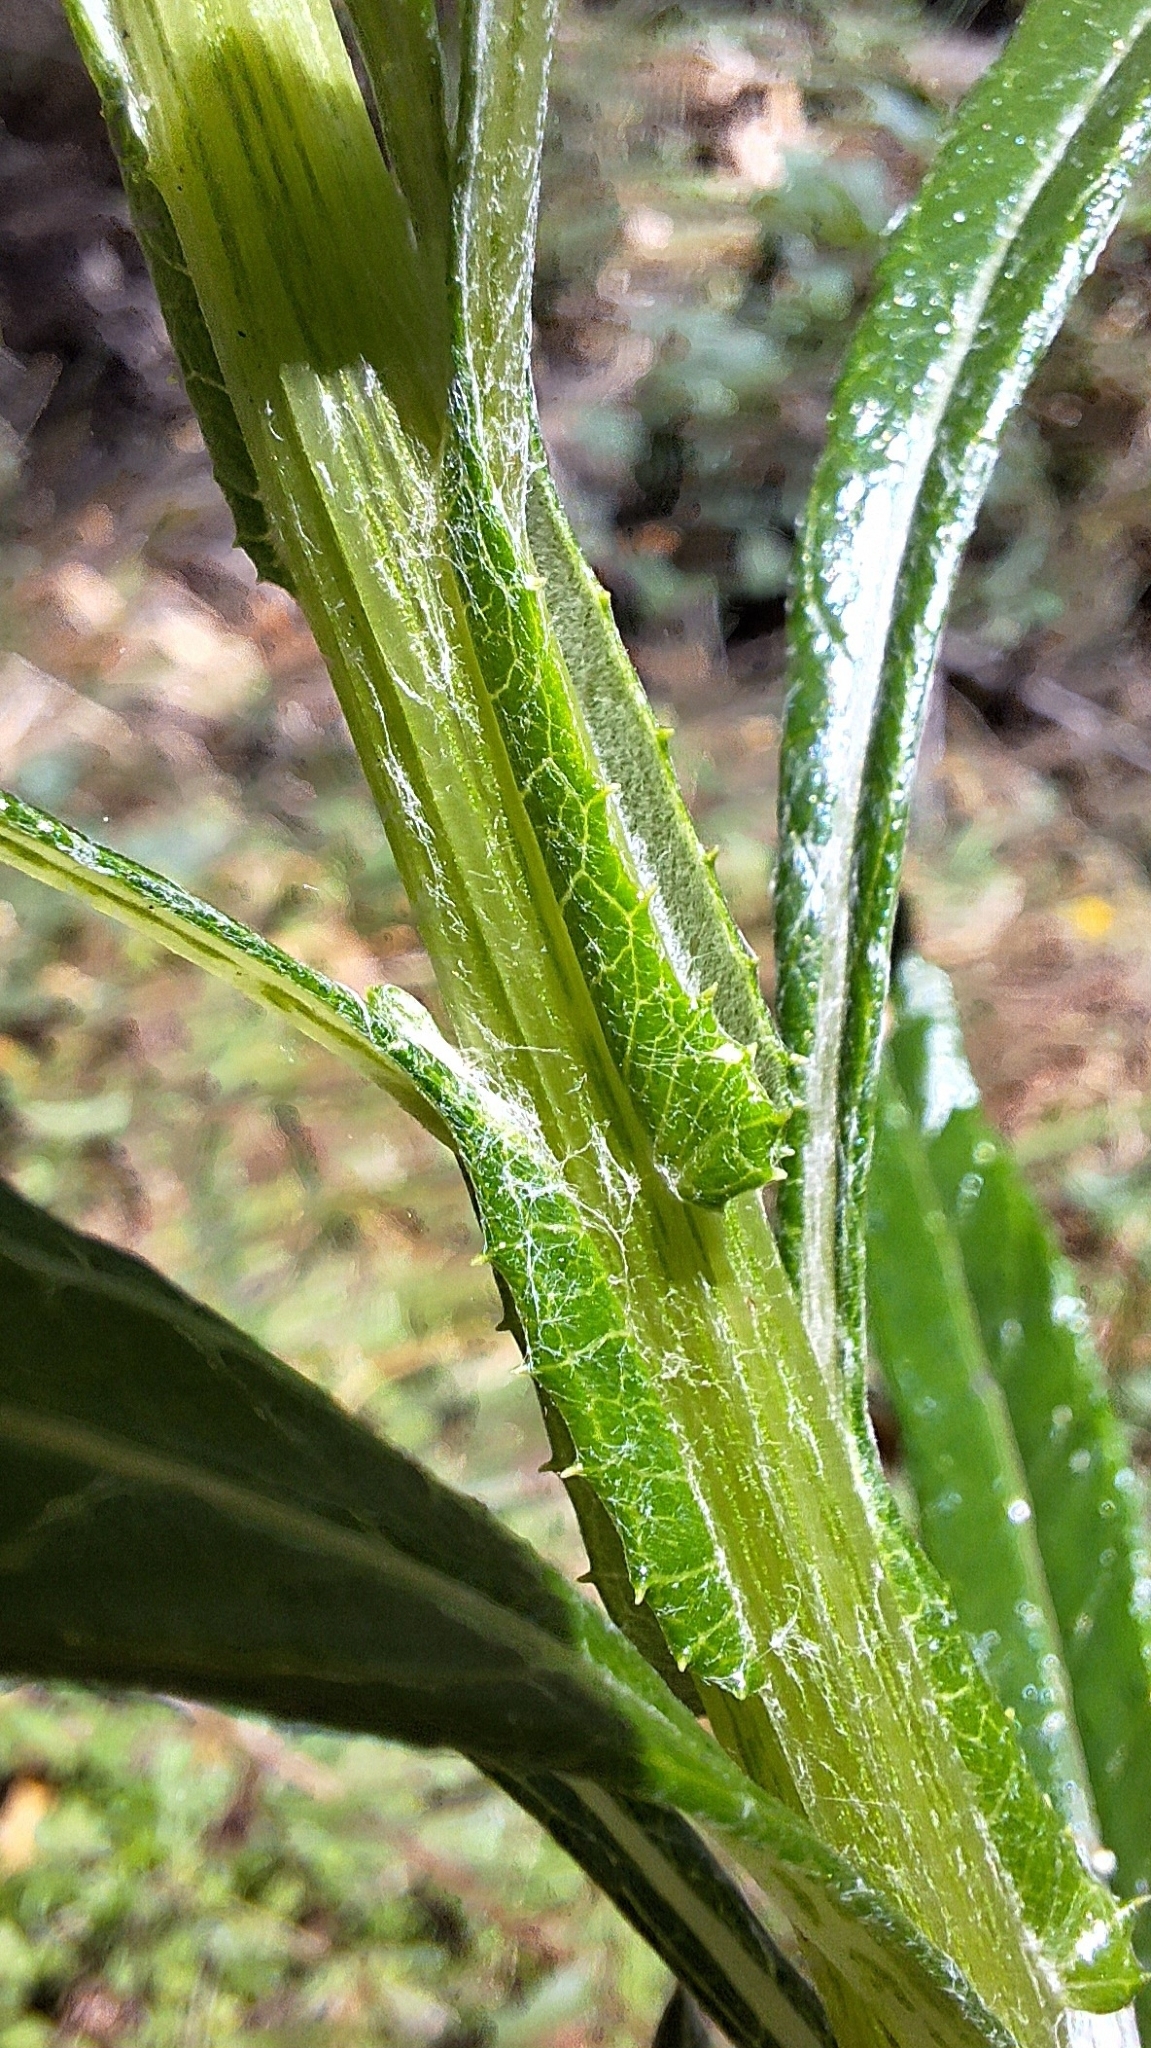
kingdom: Plantae
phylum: Tracheophyta
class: Magnoliopsida
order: Asterales
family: Asteraceae
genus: Senecio
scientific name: Senecio pterophorus
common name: Shoddy ragwort
